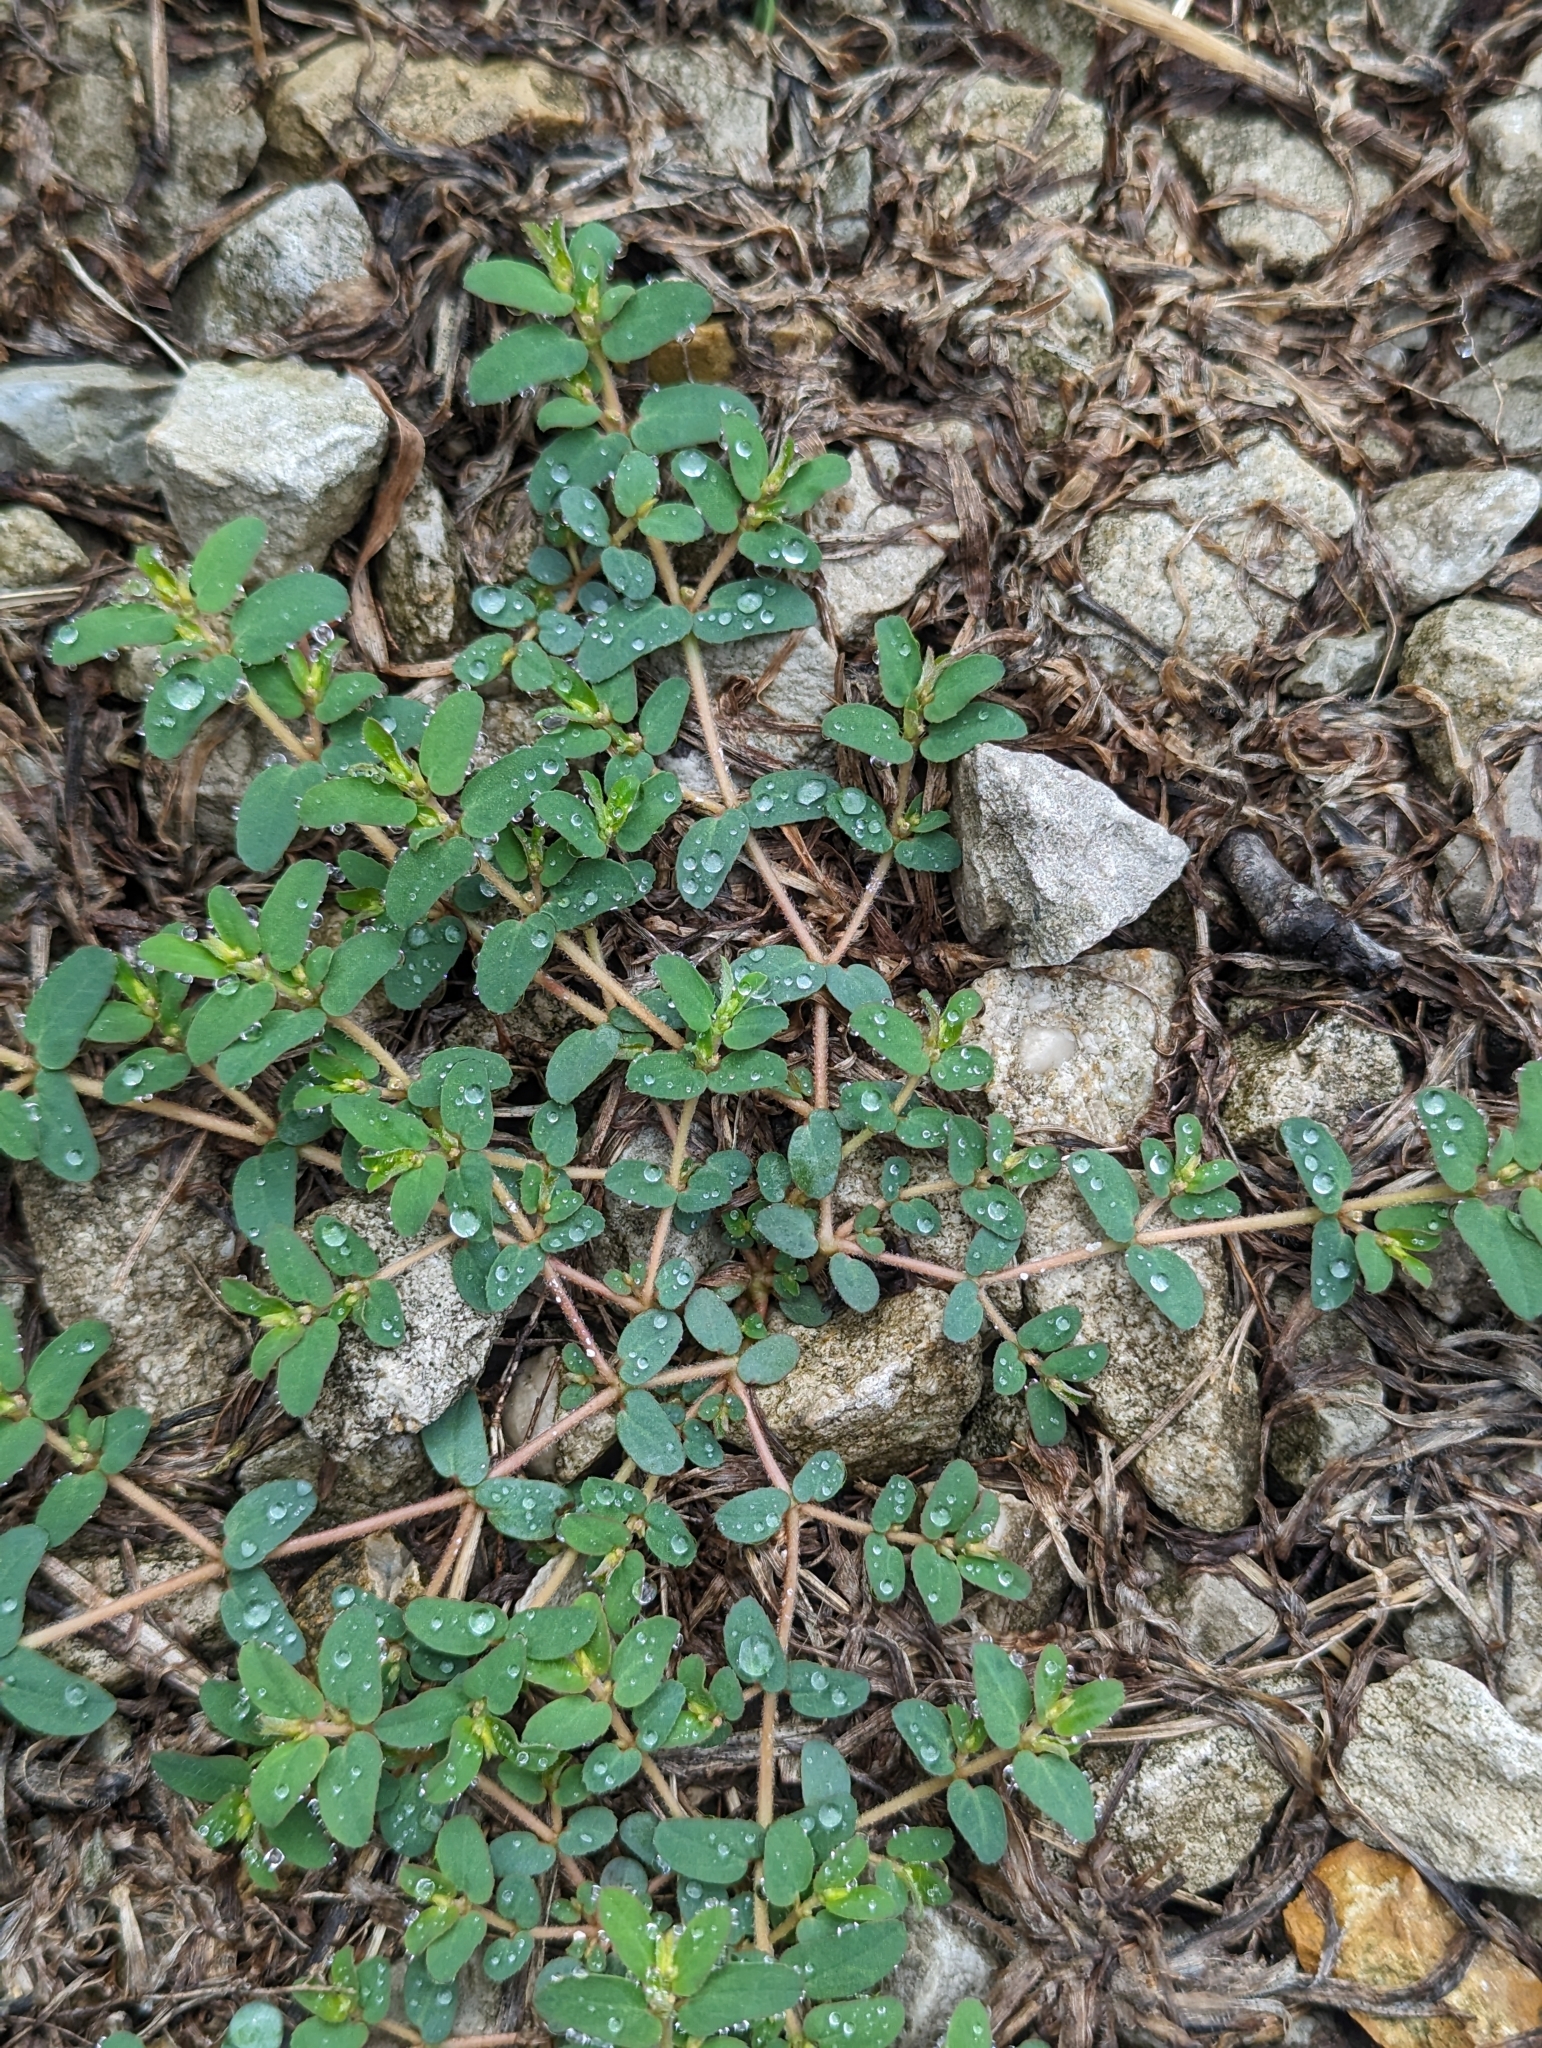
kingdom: Plantae
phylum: Tracheophyta
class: Magnoliopsida
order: Malpighiales
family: Euphorbiaceae
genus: Euphorbia
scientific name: Euphorbia maculata
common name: Spotted spurge
